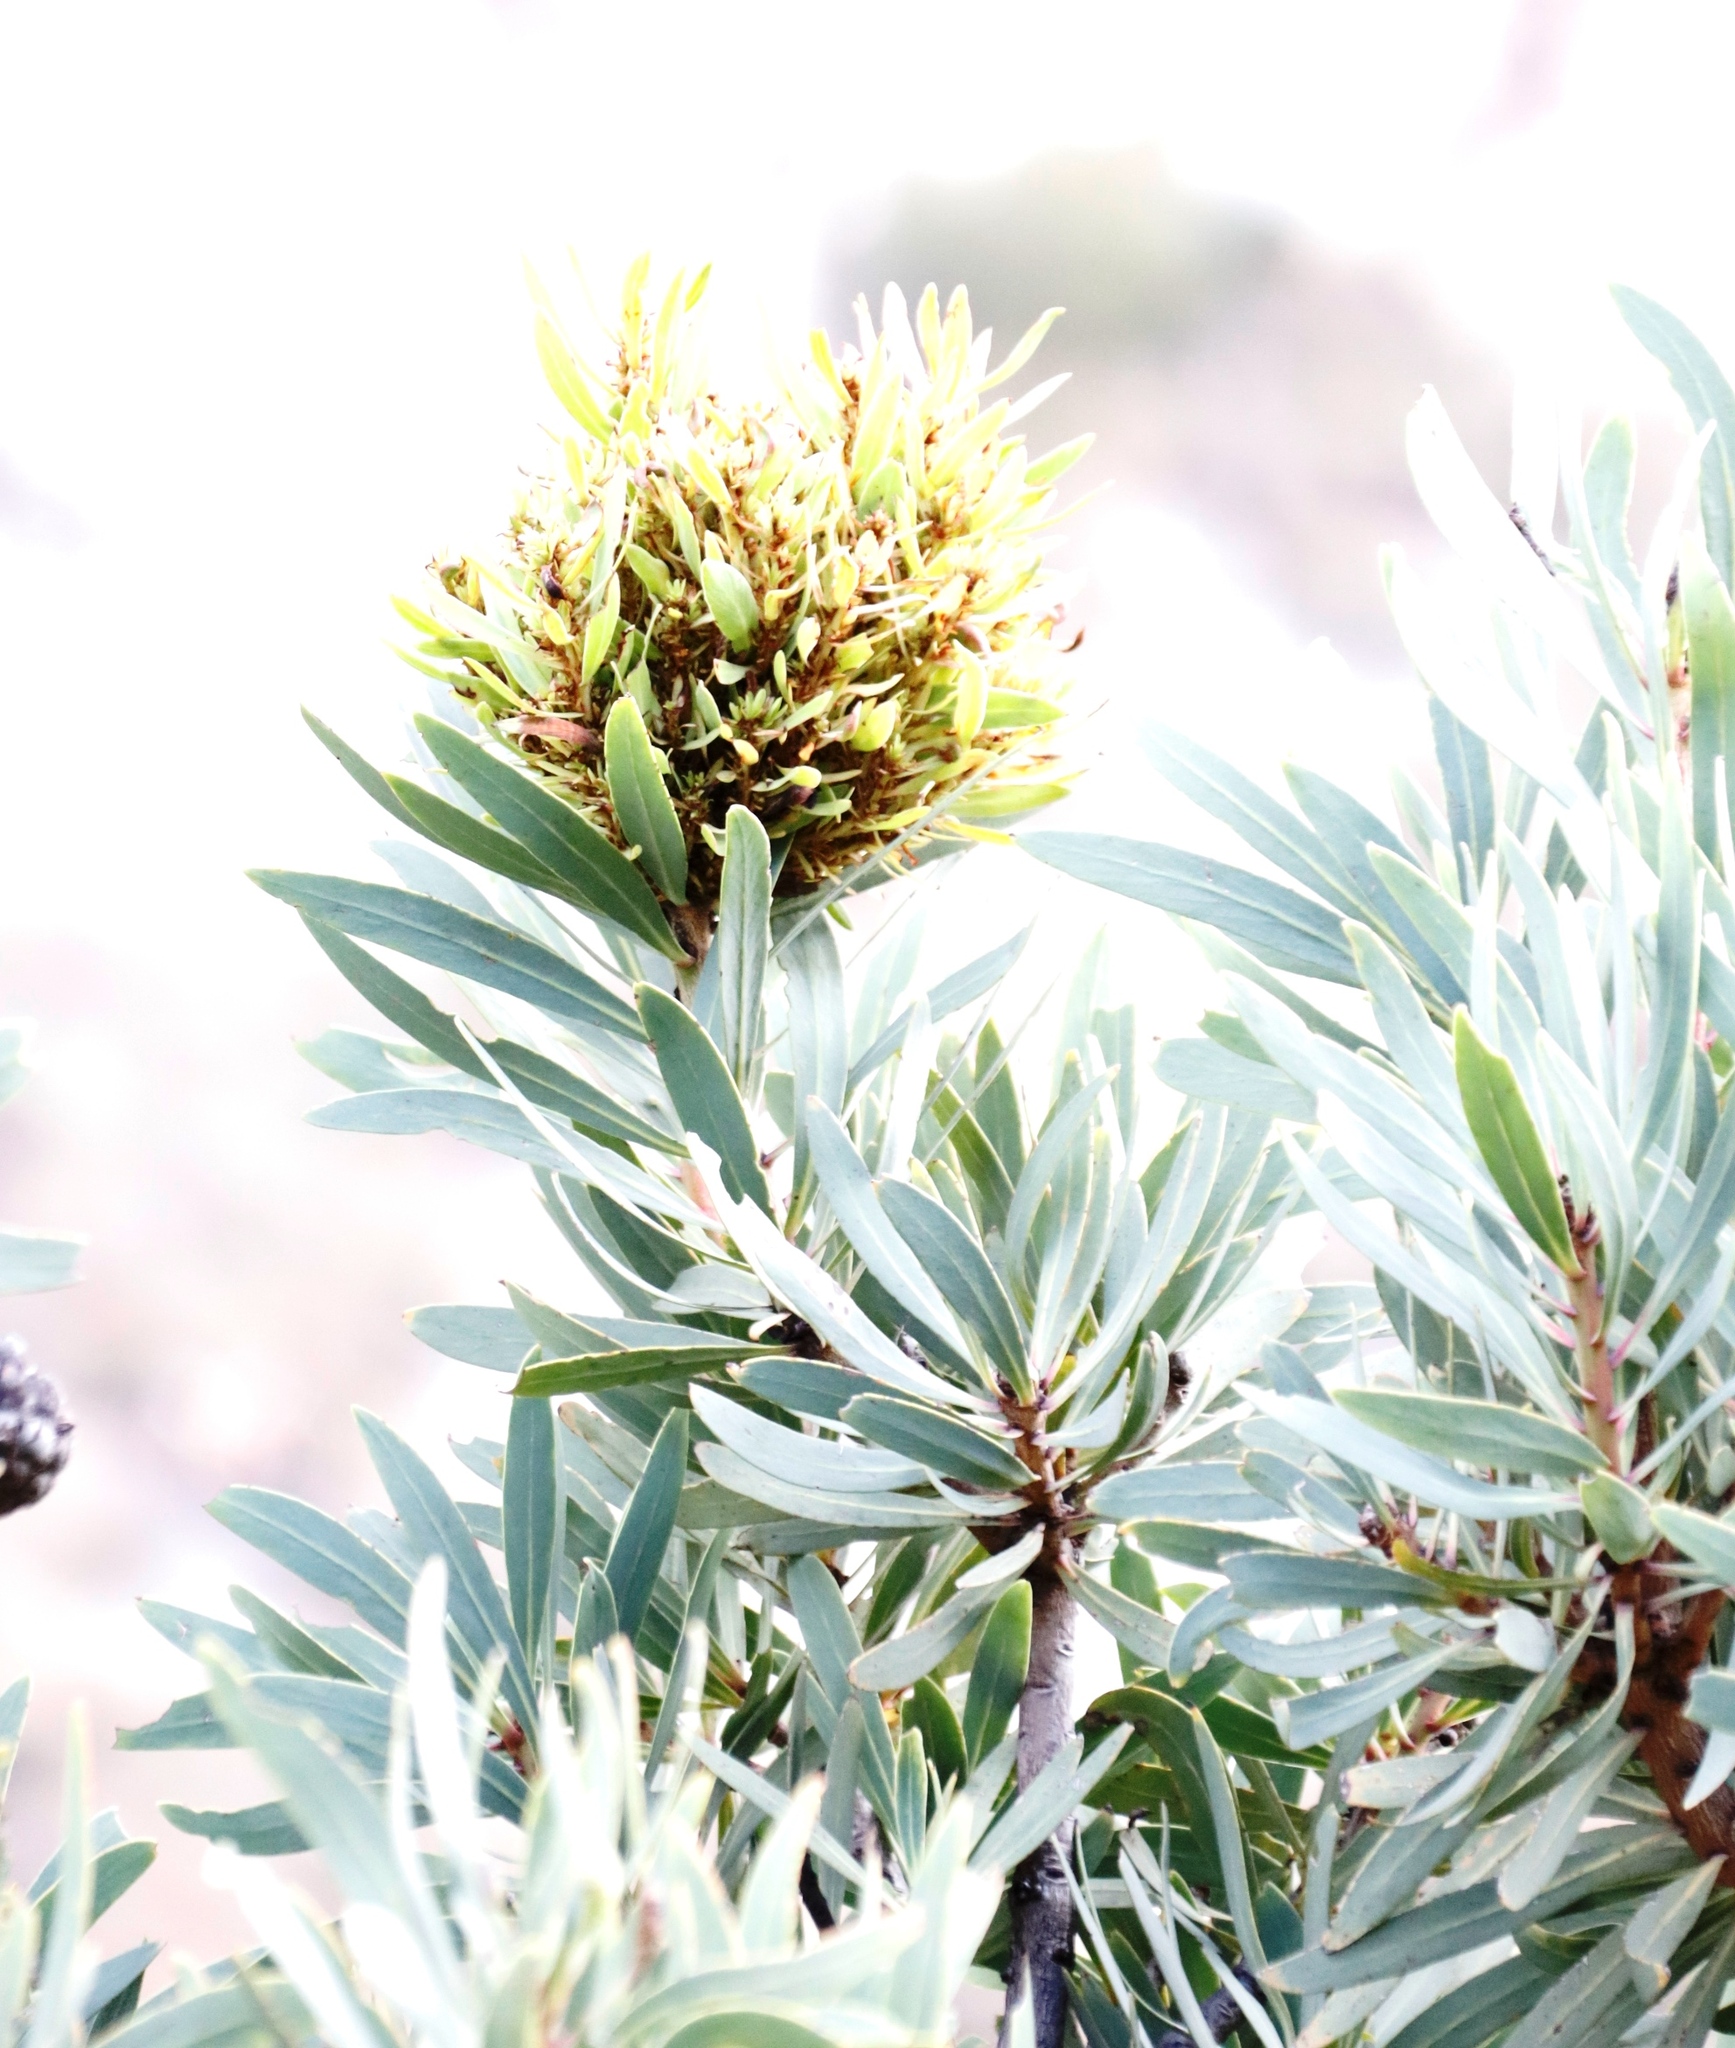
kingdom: Bacteria
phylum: Firmicutes
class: Bacilli
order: Acholeplasmatales
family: Acholeplasmataceae
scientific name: Acholeplasmataceae
